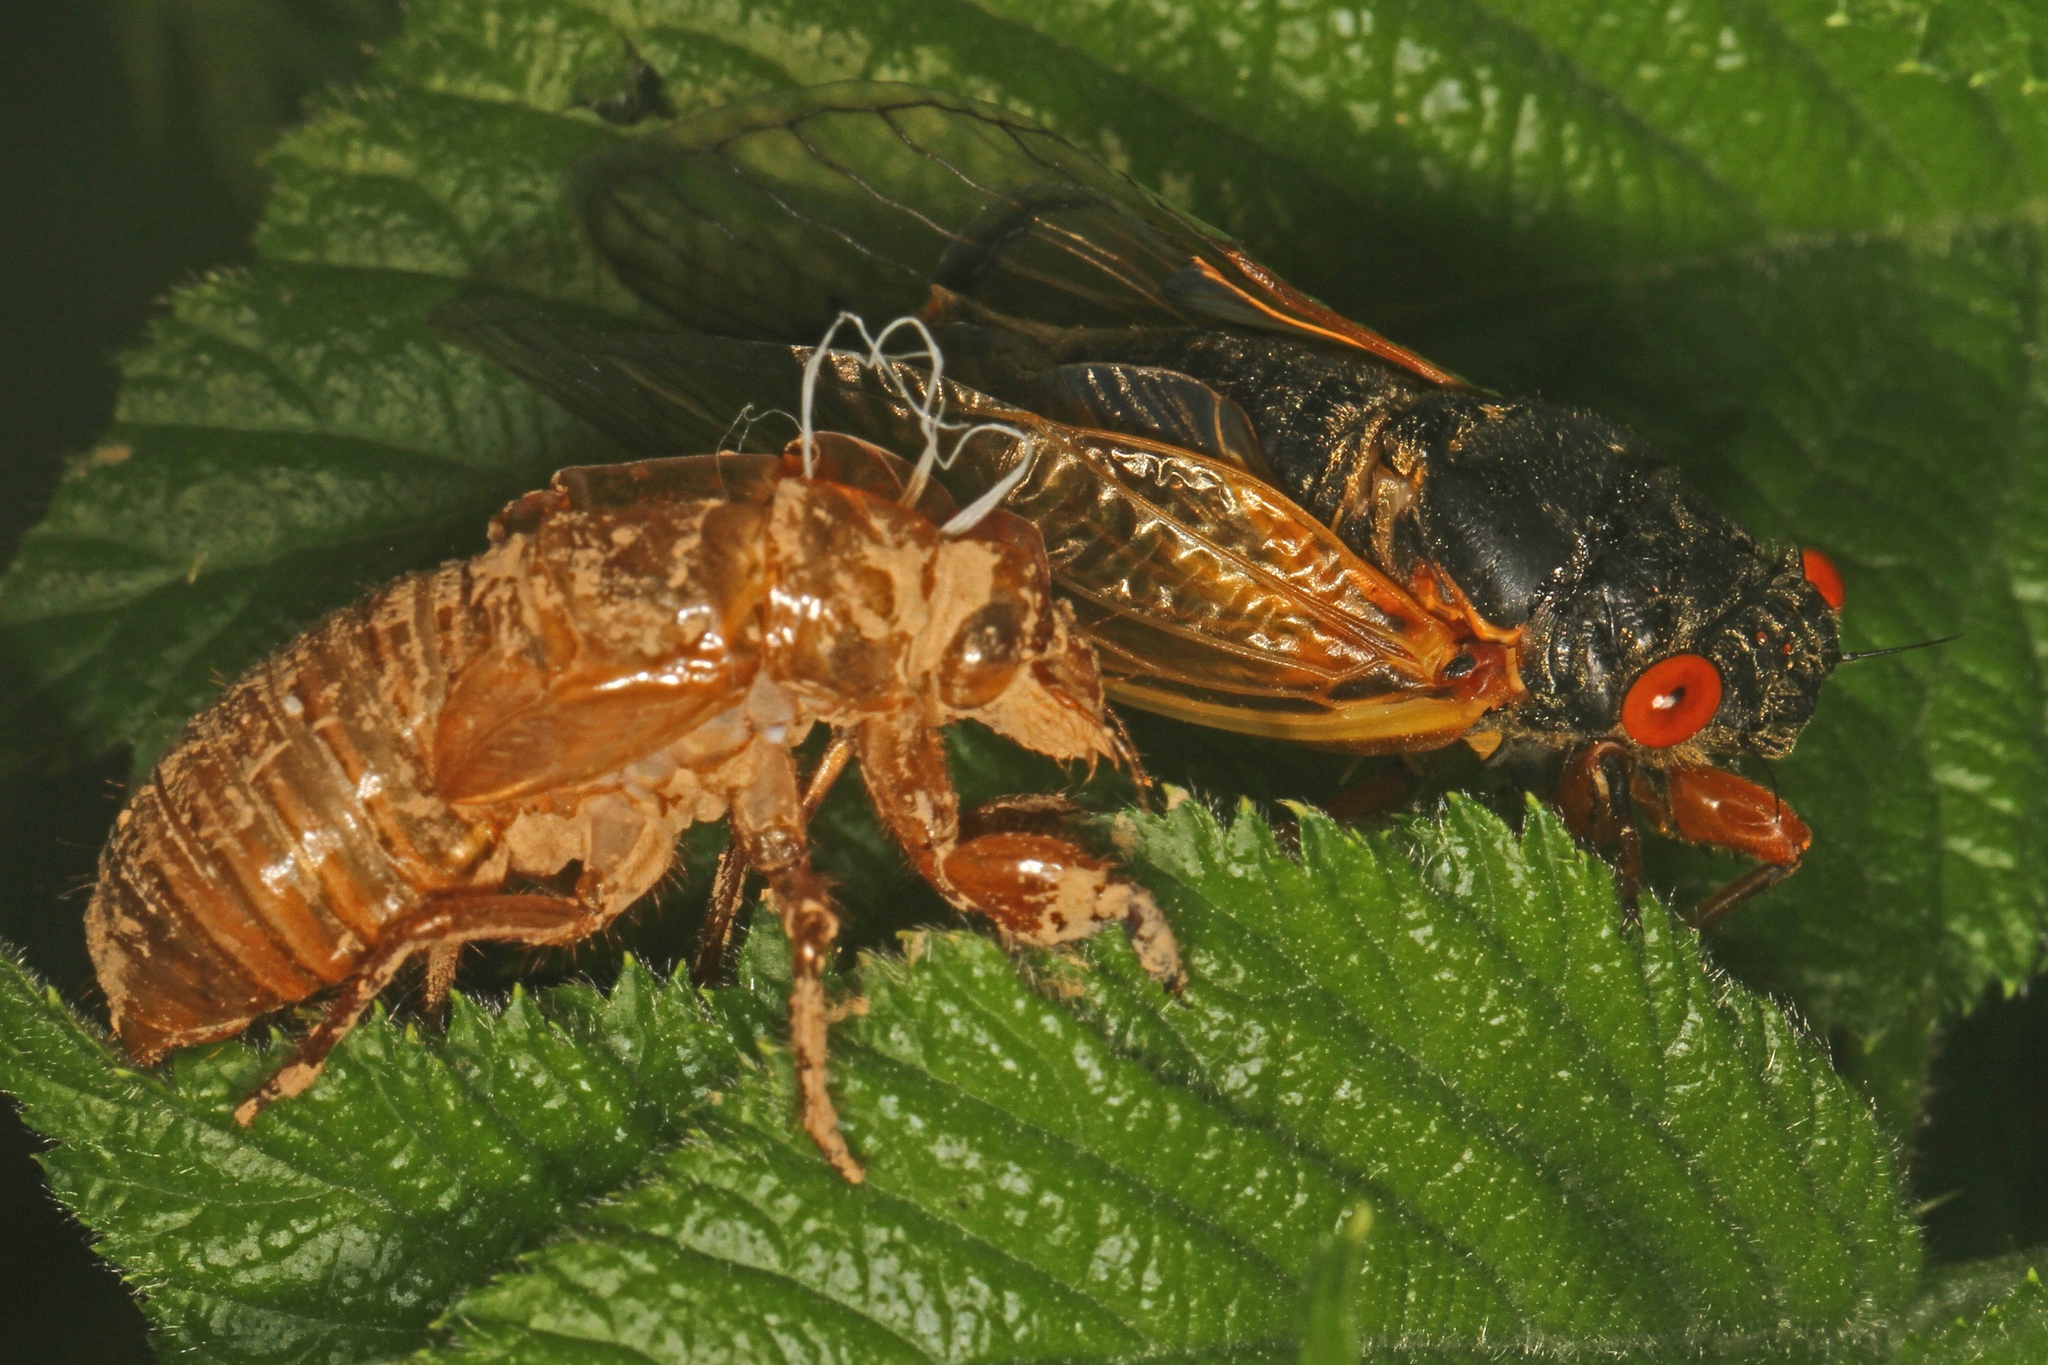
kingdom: Animalia
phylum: Arthropoda
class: Insecta
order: Hemiptera
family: Cicadidae
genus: Magicicada
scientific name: Magicicada
